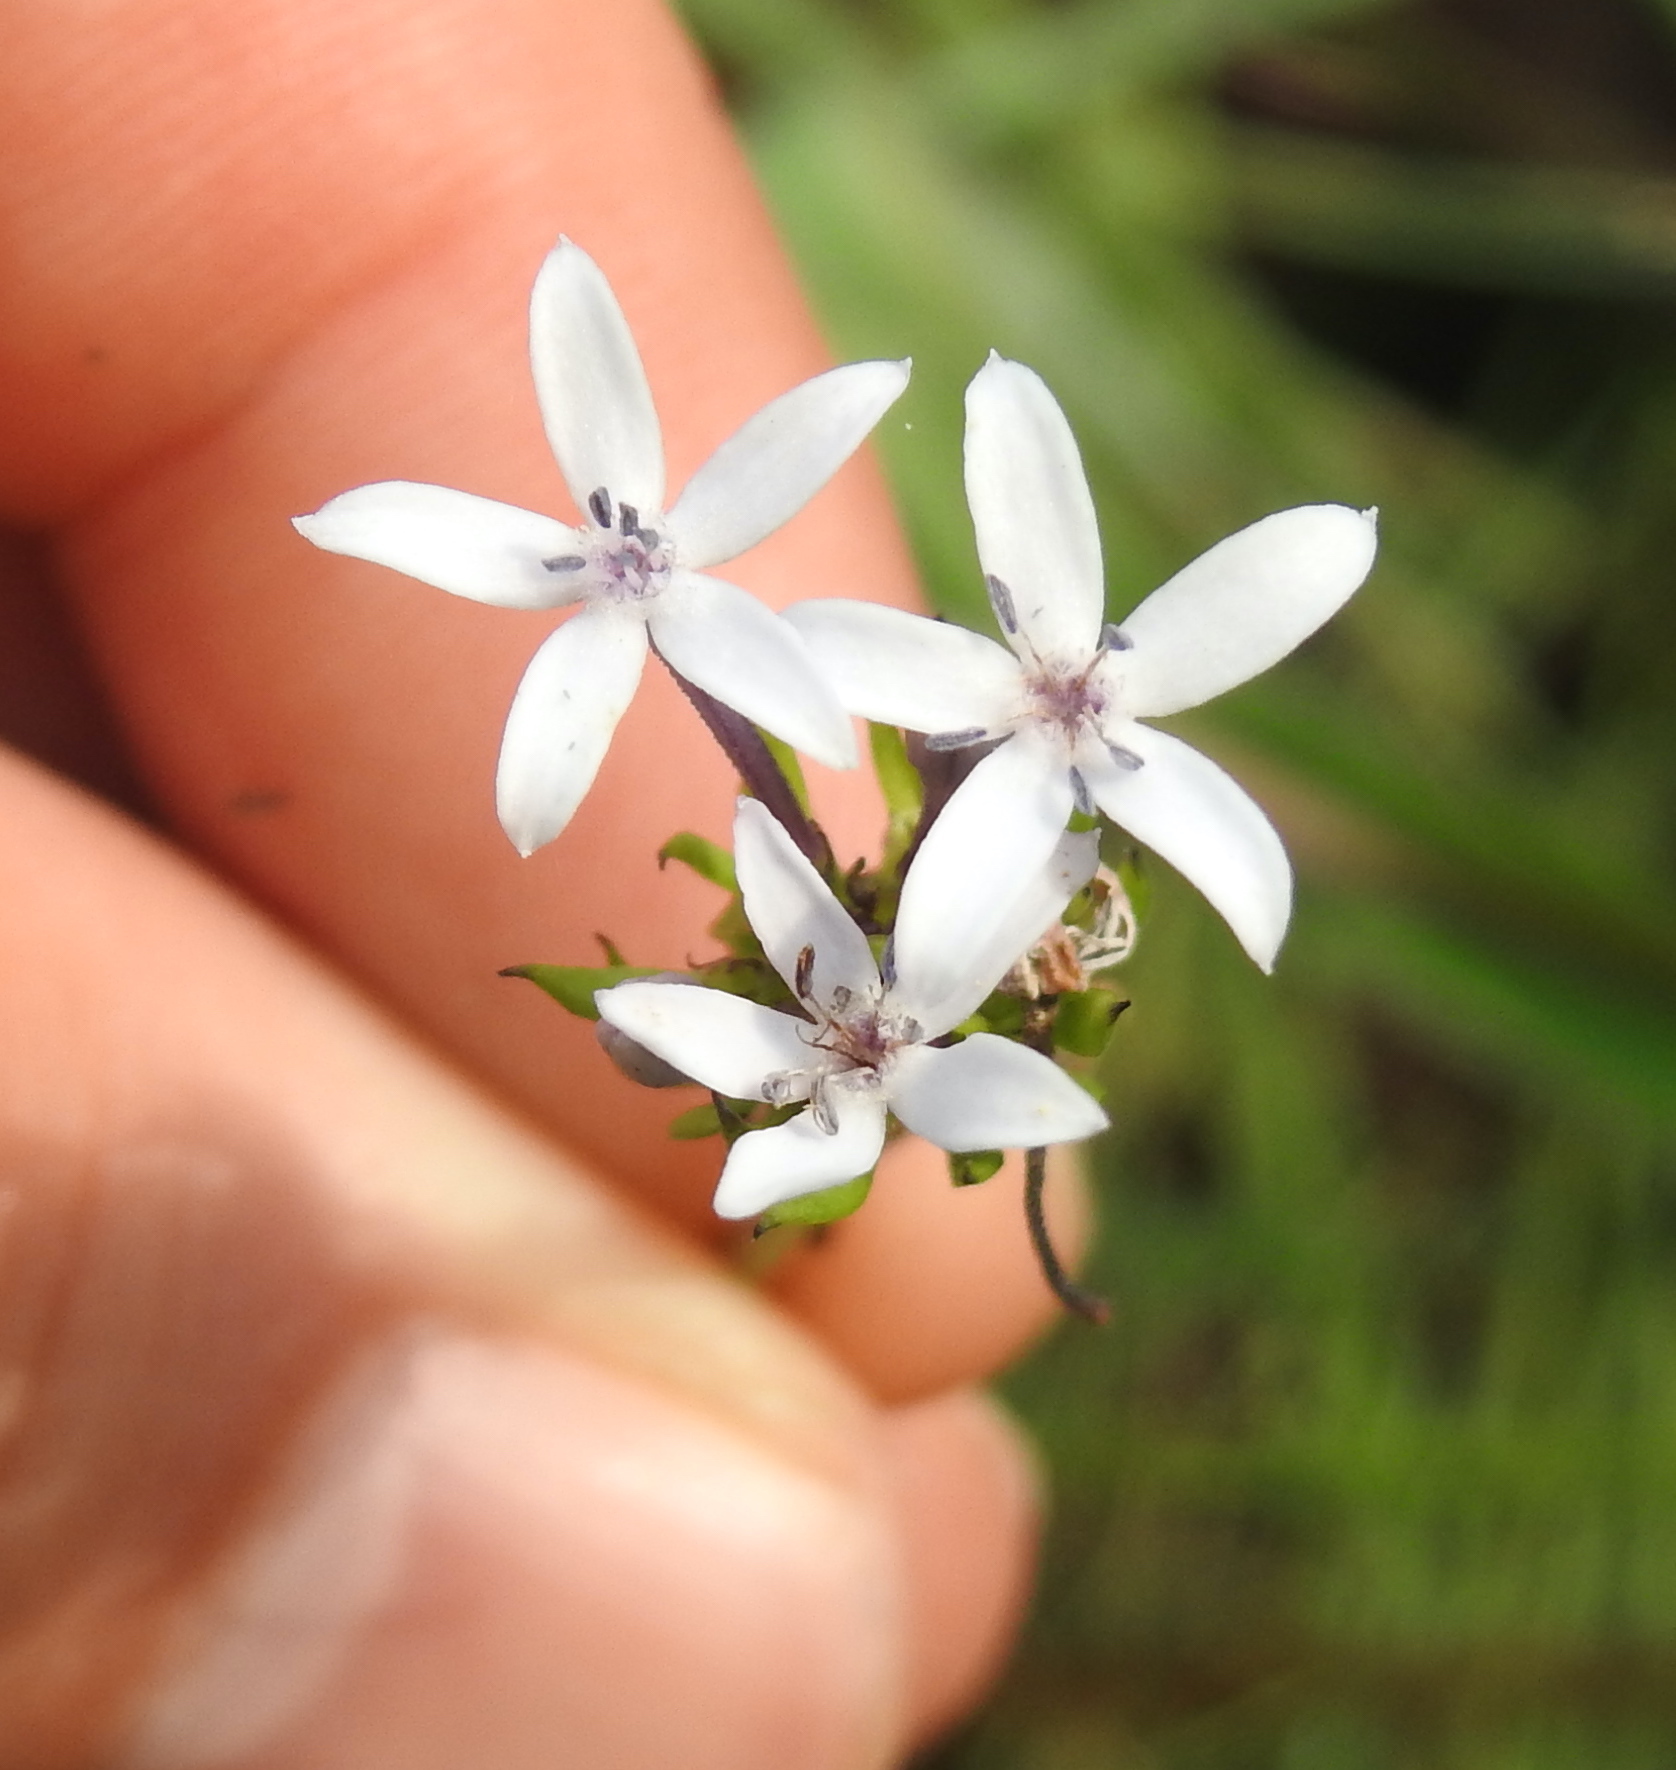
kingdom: Plantae
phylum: Tracheophyta
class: Magnoliopsida
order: Gentianales
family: Rubiaceae
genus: Pentanisia
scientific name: Pentanisia angustifolia
